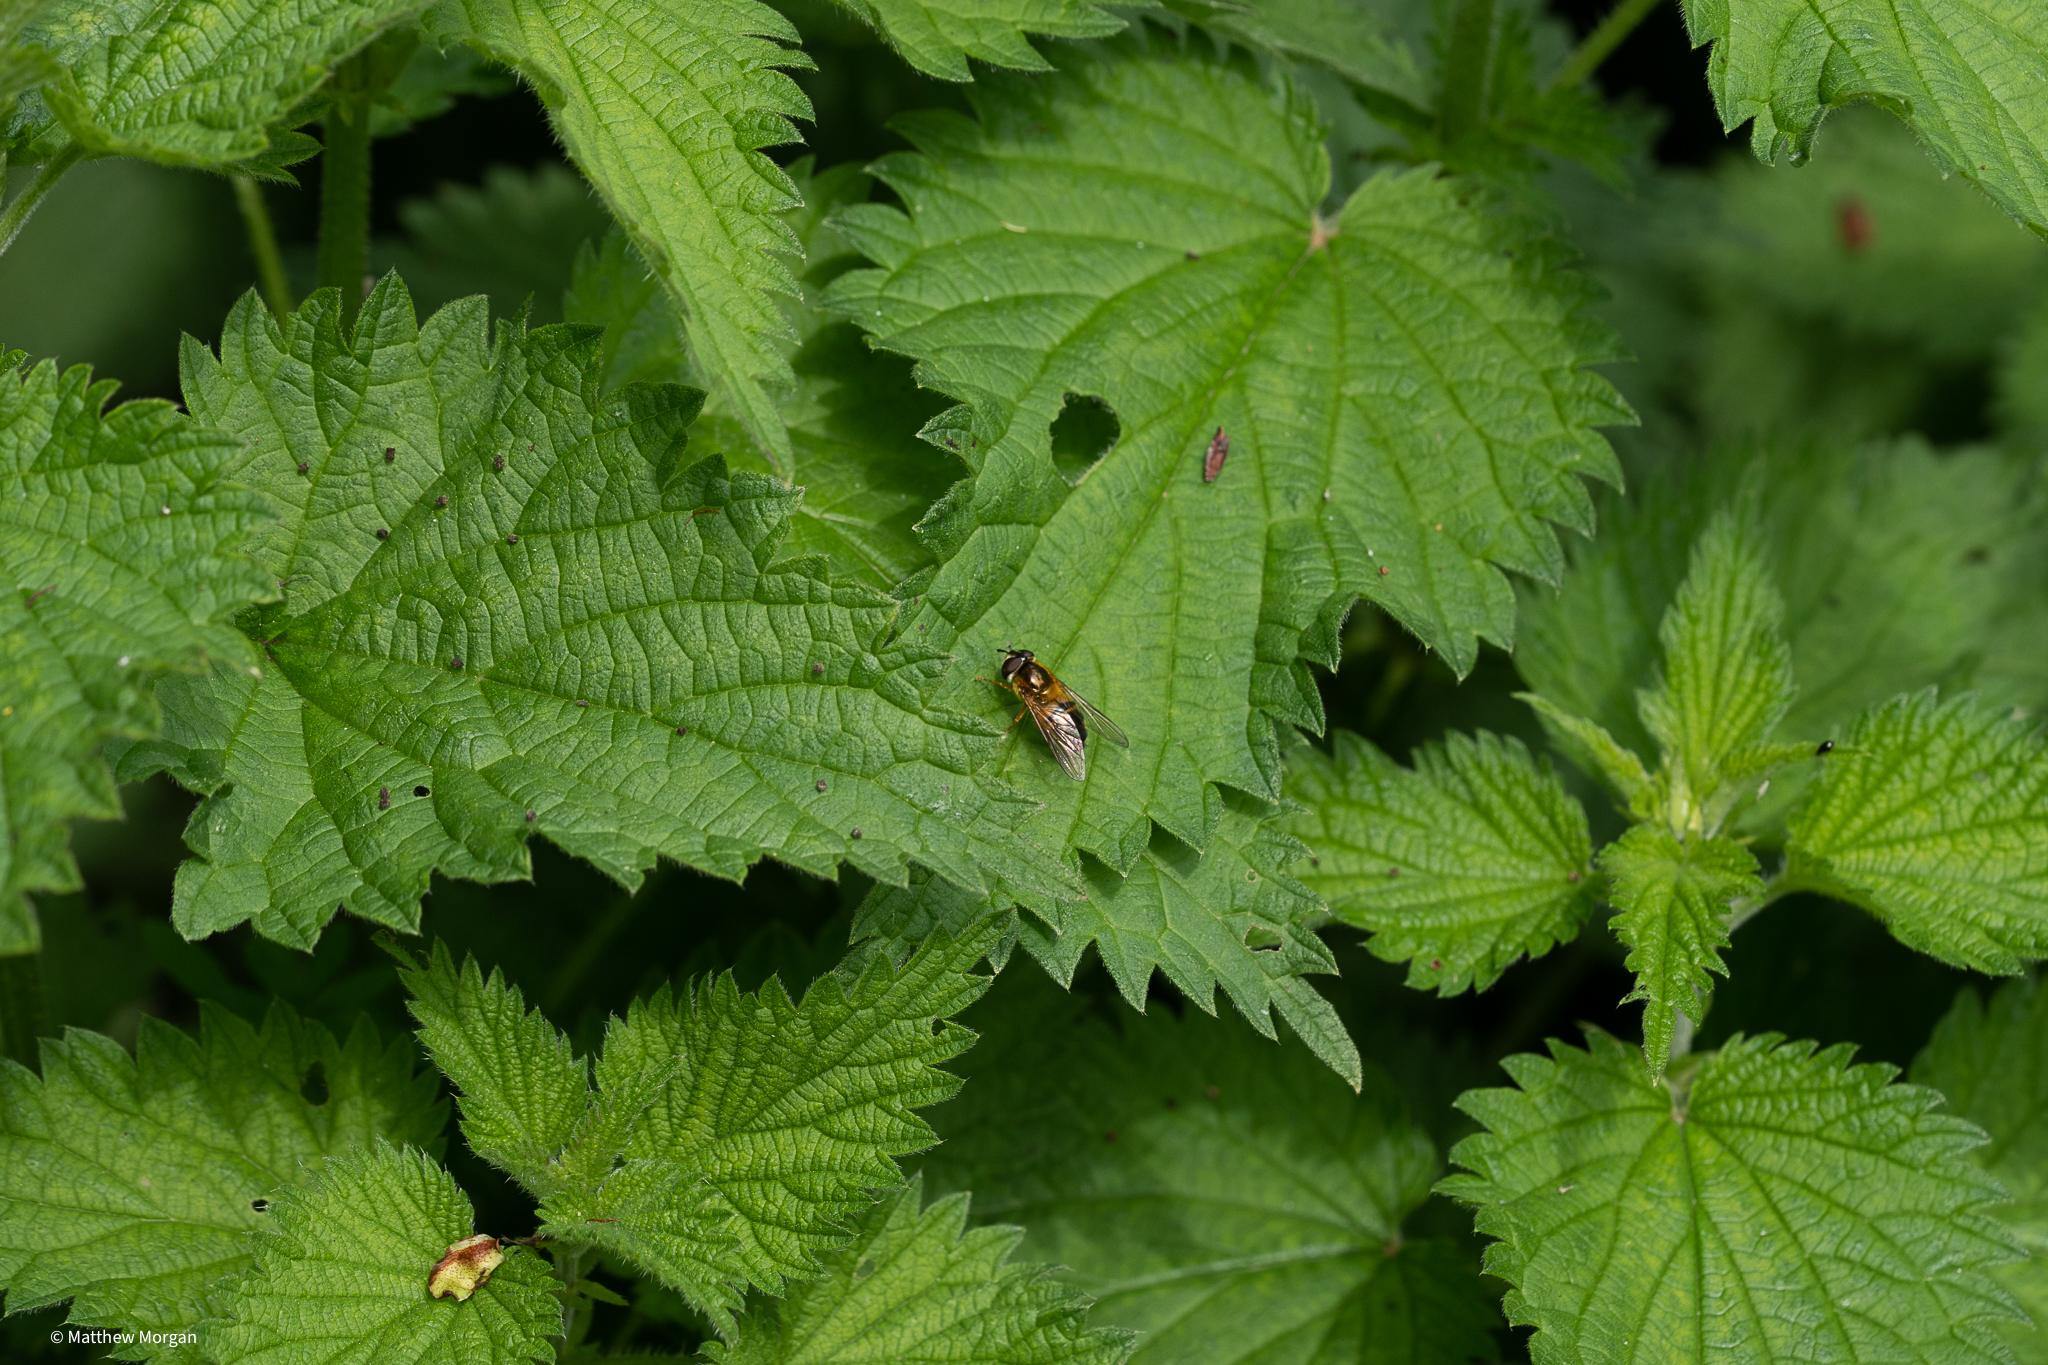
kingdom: Animalia
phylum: Arthropoda
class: Insecta
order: Diptera
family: Syrphidae
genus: Epistrophe
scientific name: Epistrophe eligans
